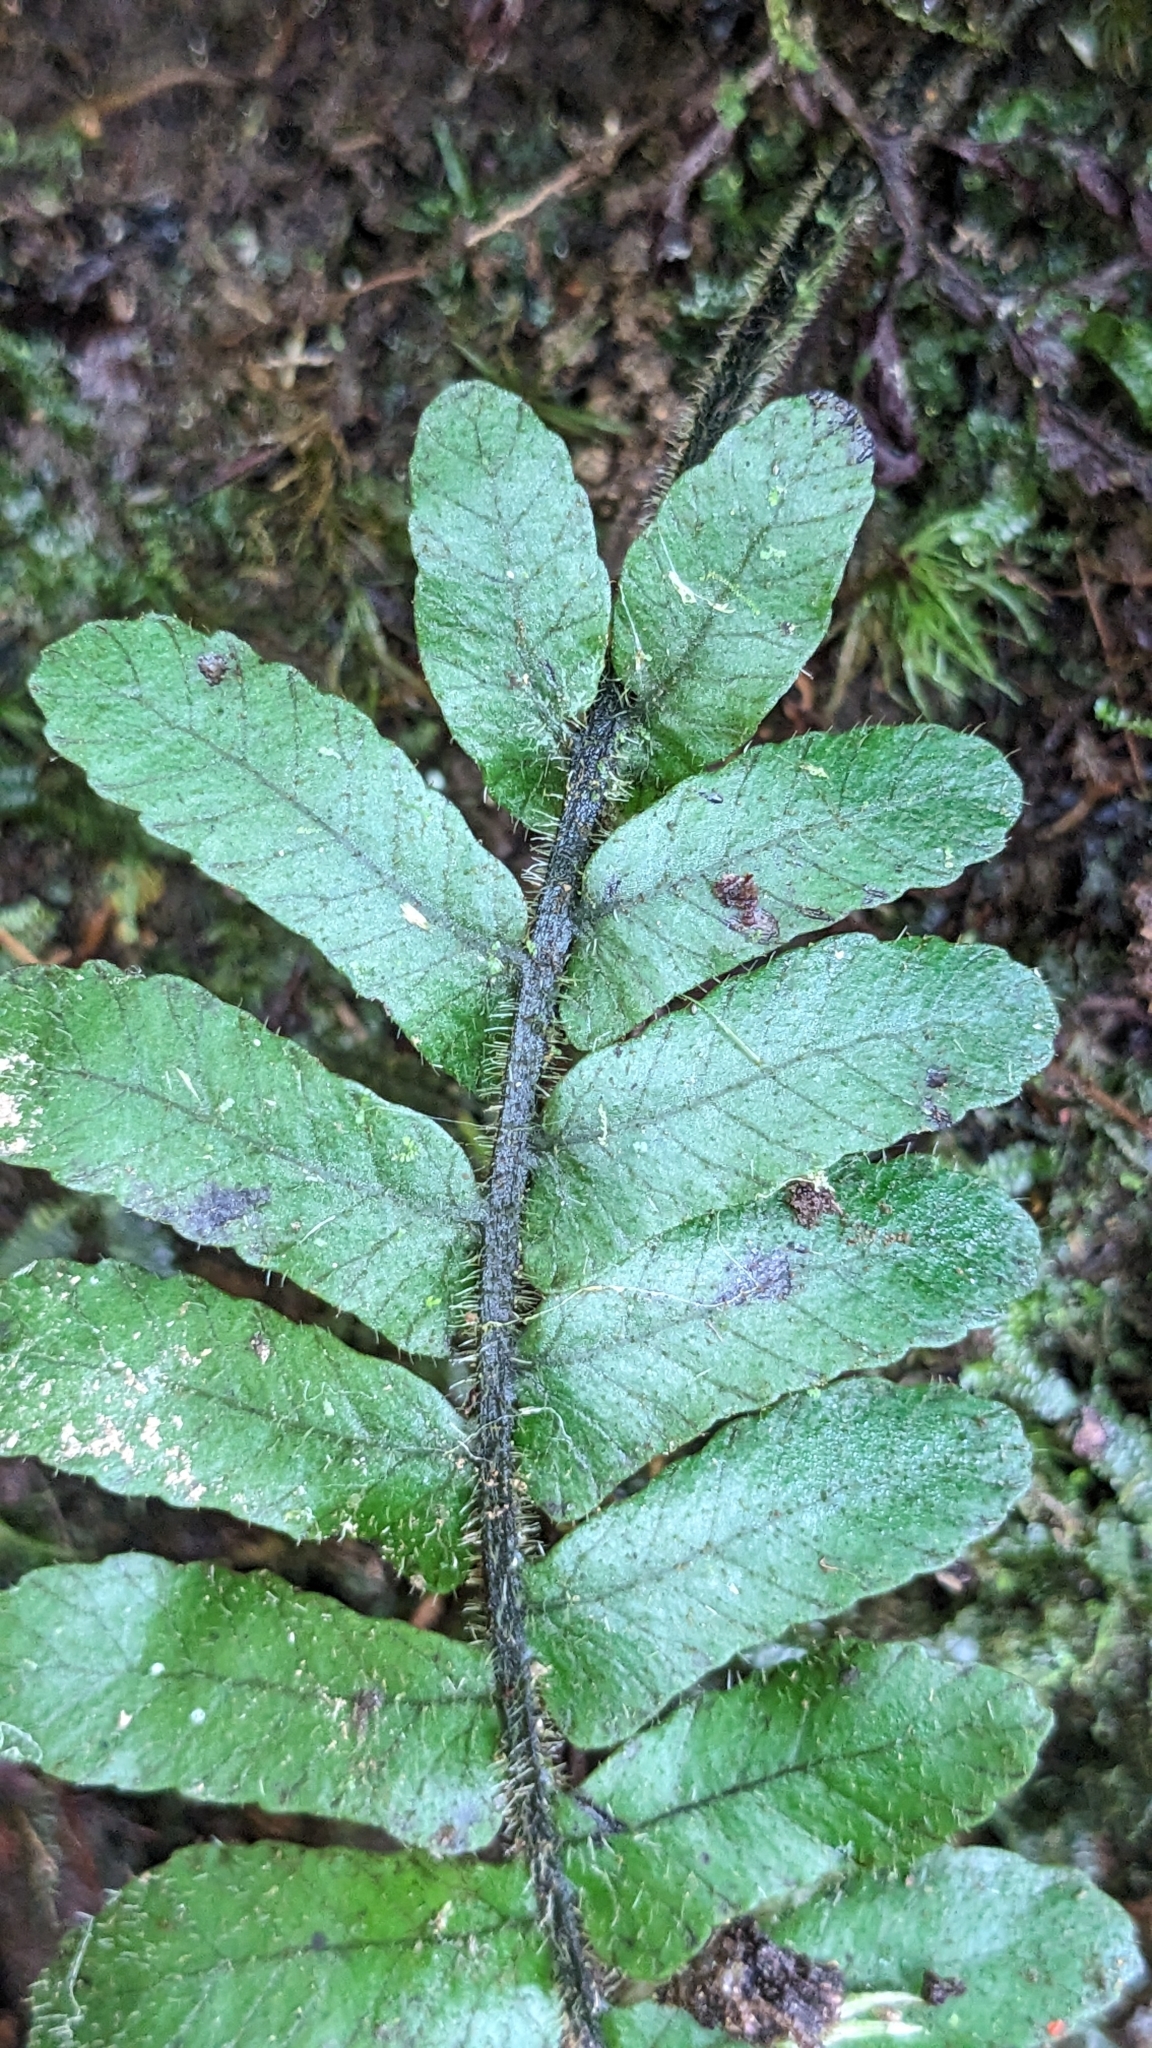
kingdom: Plantae
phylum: Tracheophyta
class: Polypodiopsida
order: Polypodiales
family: Athyriaceae
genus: Diplazium
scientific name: Diplazium pullingeri
